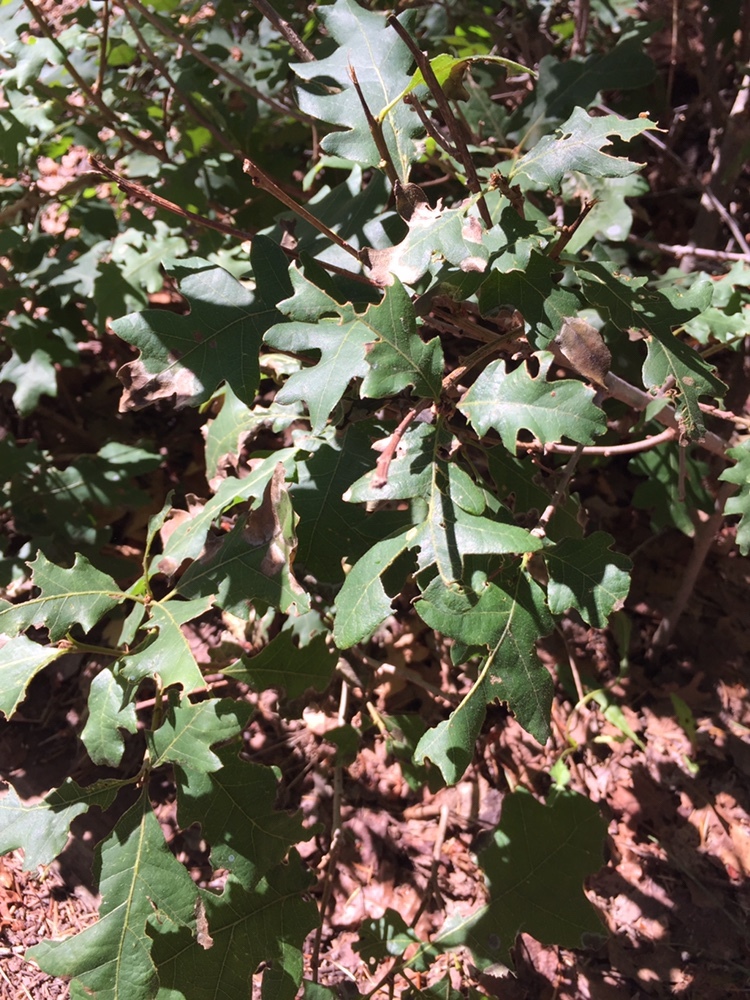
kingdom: Plantae
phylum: Tracheophyta
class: Magnoliopsida
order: Fagales
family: Fagaceae
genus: Quercus
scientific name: Quercus gambelii
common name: Gambel oak
